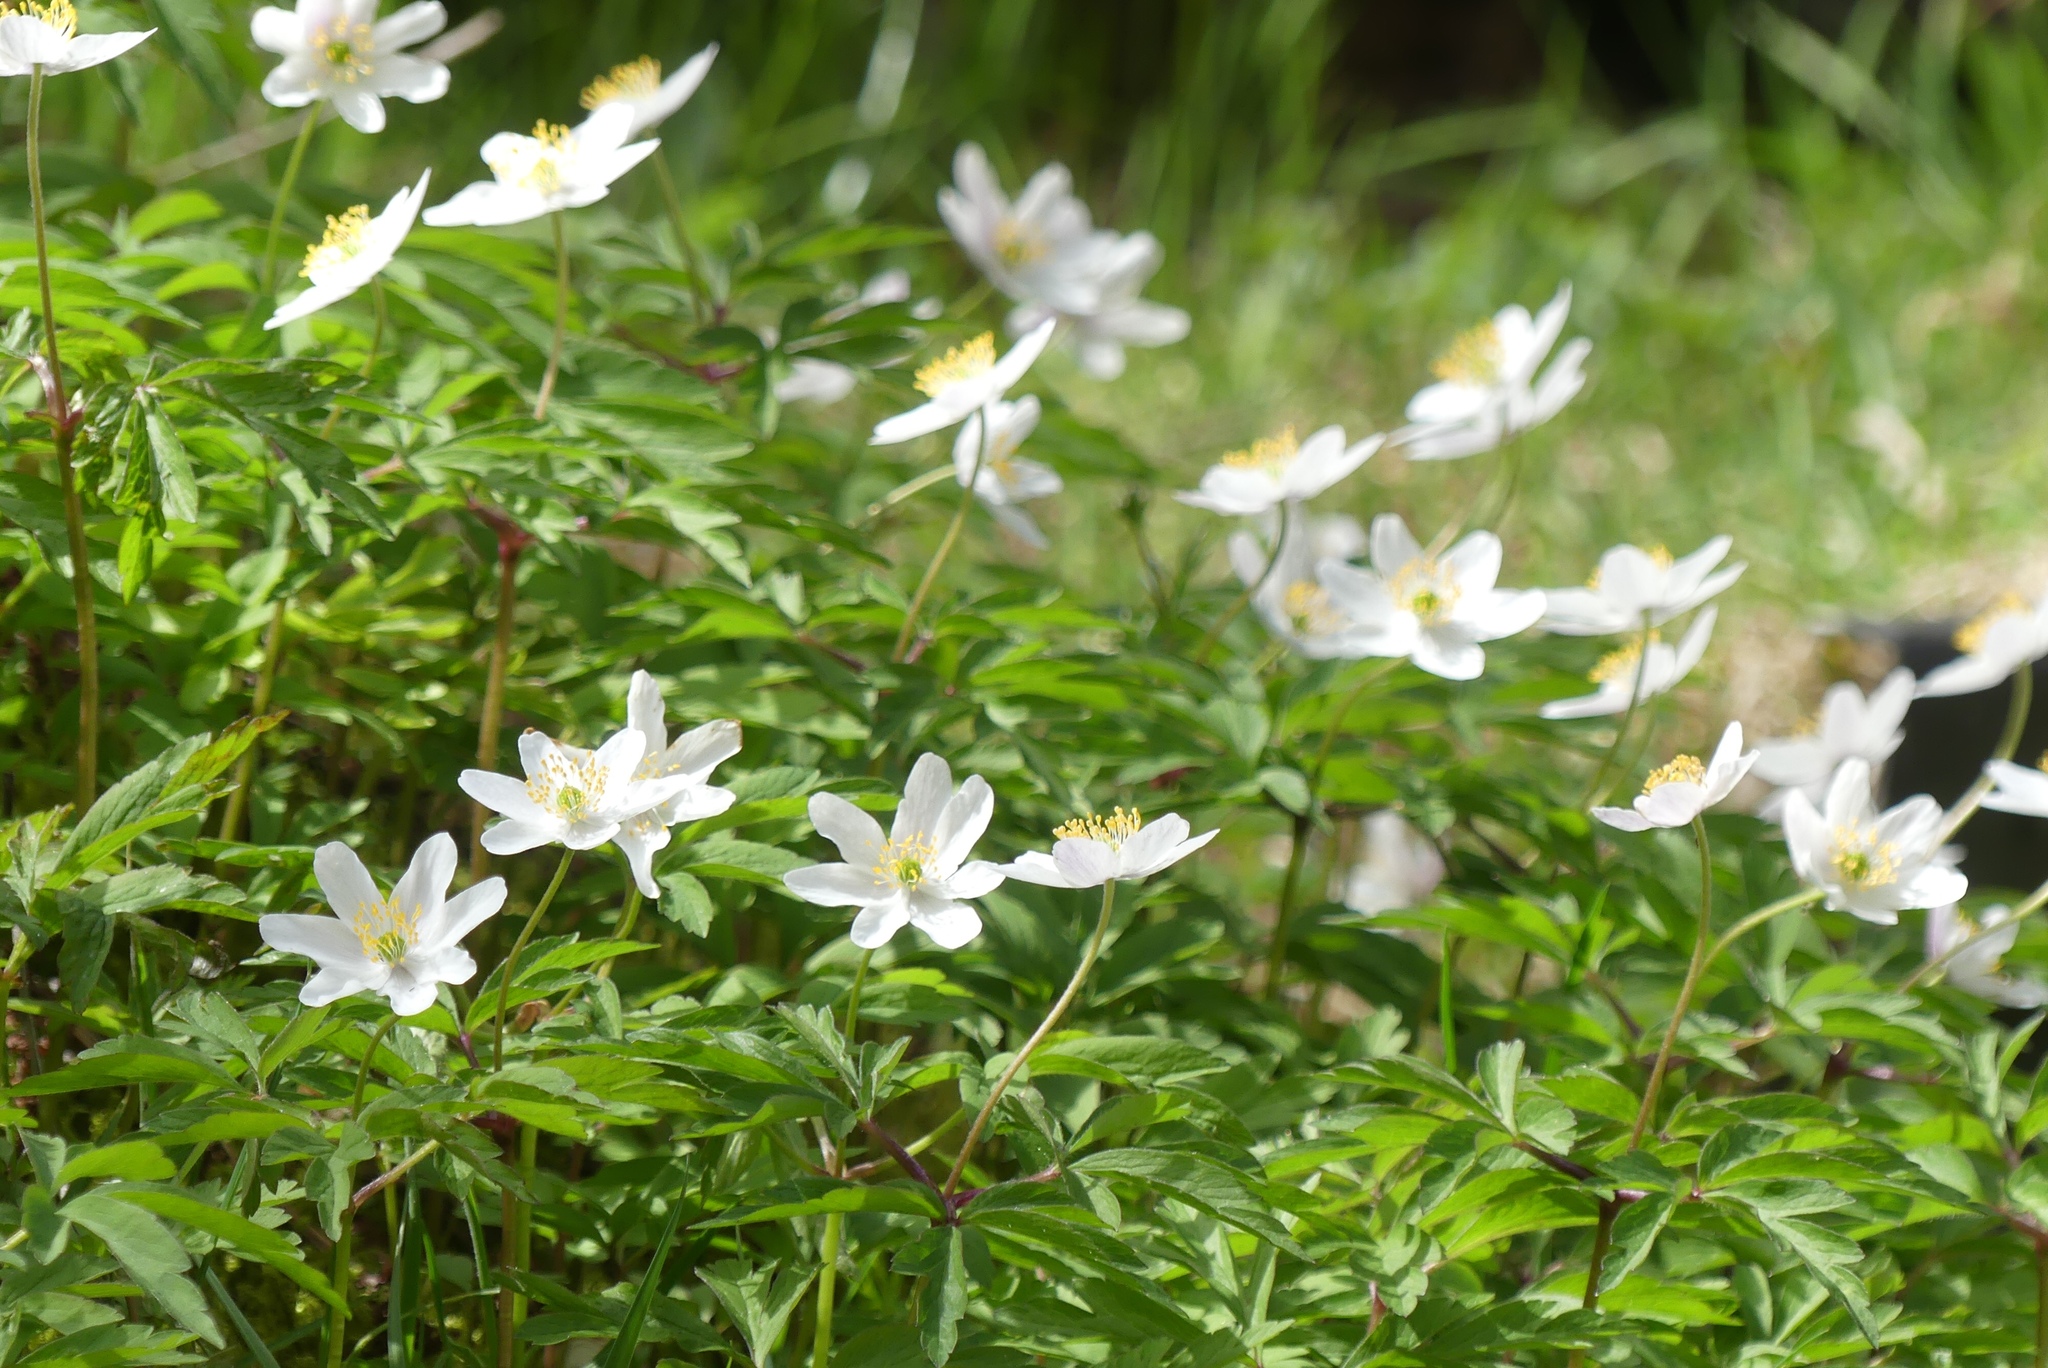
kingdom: Plantae
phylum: Tracheophyta
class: Magnoliopsida
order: Ranunculales
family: Ranunculaceae
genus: Anemone
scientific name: Anemone nemorosa
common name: Wood anemone
